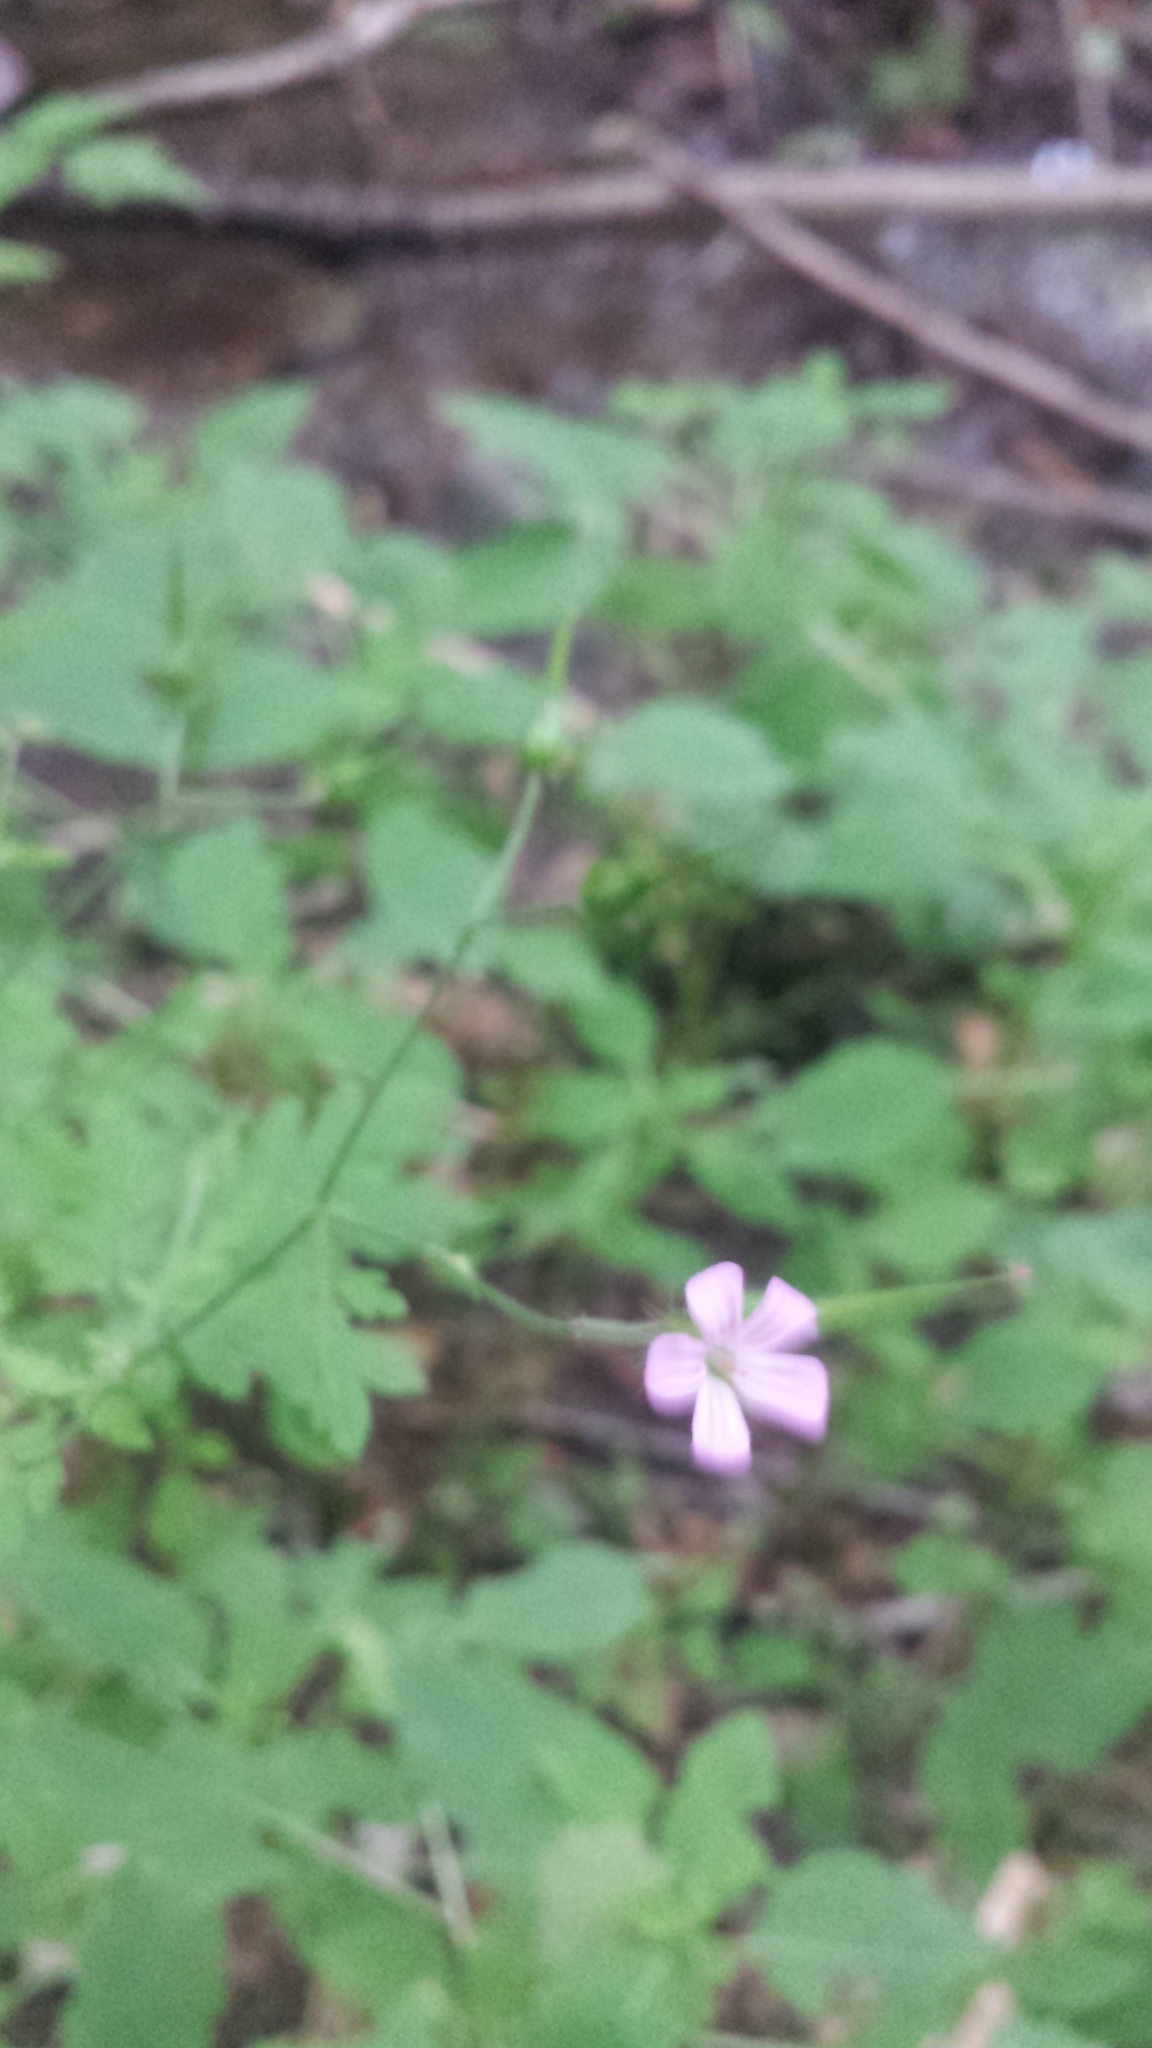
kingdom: Plantae
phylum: Tracheophyta
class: Magnoliopsida
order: Geraniales
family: Geraniaceae
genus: Geranium
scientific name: Geranium robertianum
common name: Herb-robert
